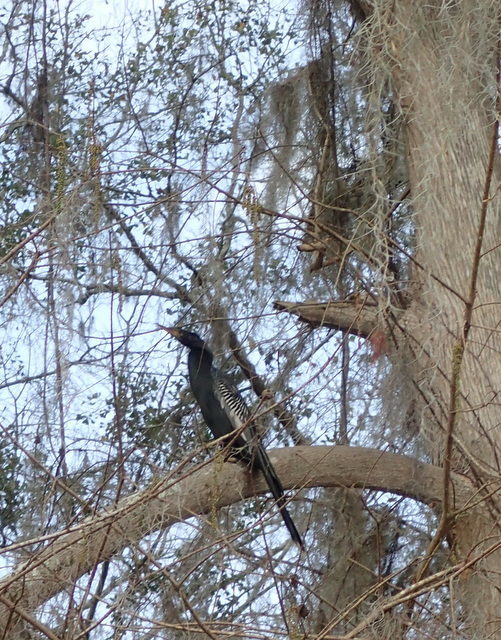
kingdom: Animalia
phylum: Chordata
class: Aves
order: Suliformes
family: Anhingidae
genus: Anhinga
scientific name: Anhinga anhinga
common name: Anhinga
